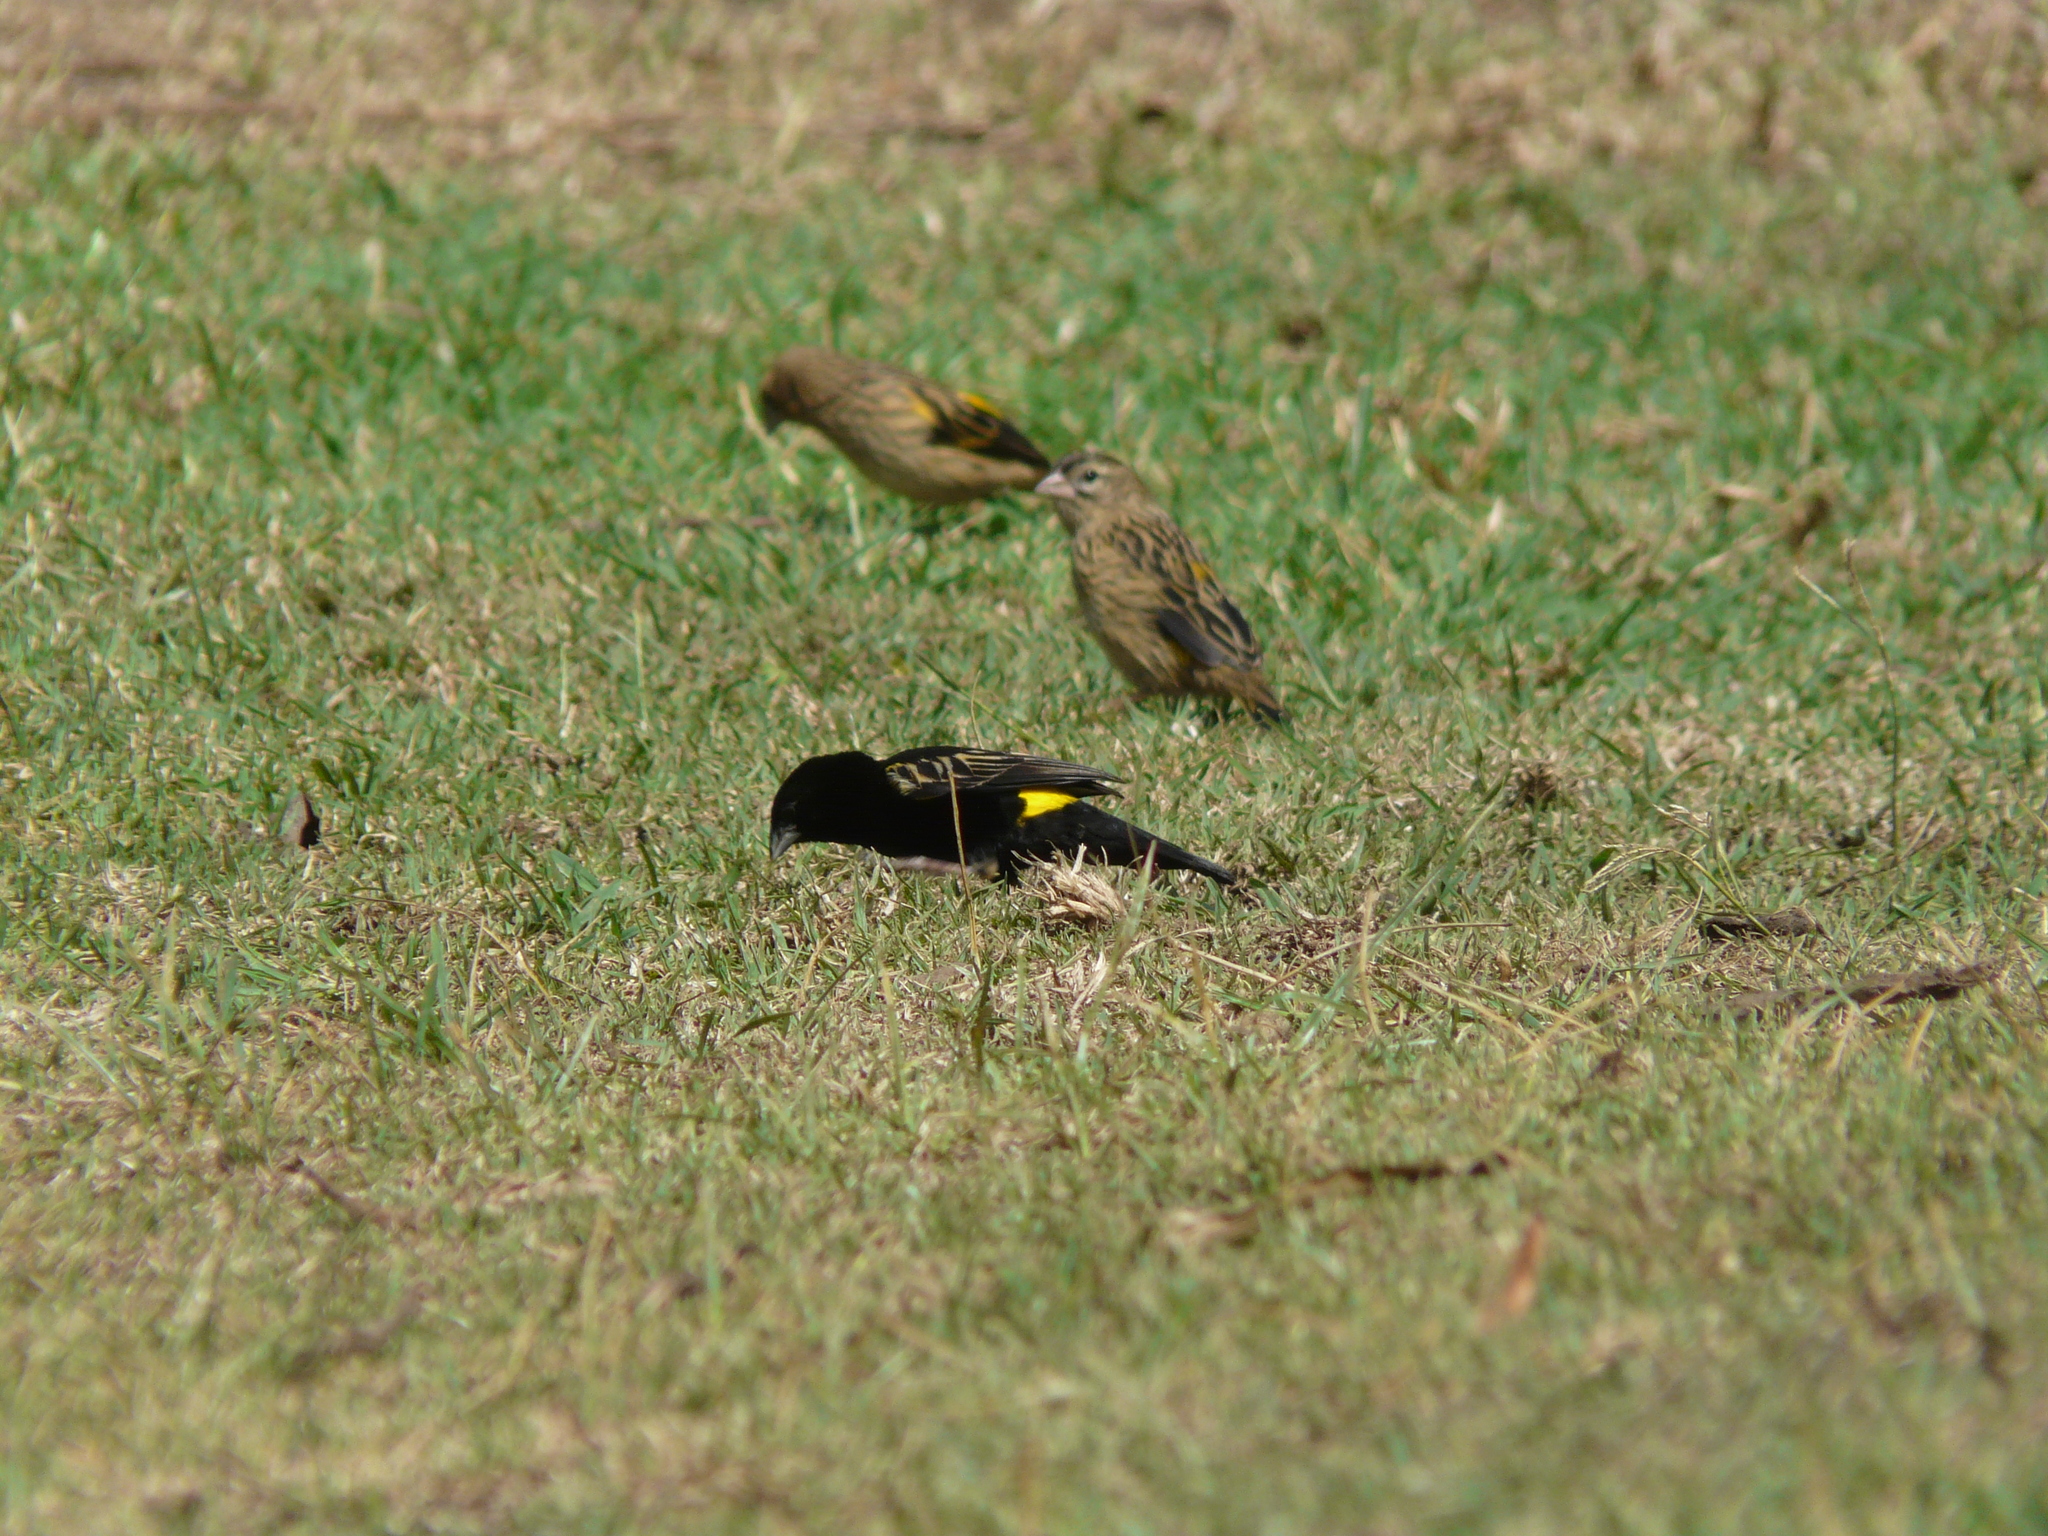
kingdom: Animalia
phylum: Chordata
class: Aves
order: Passeriformes
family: Ploceidae
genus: Euplectes
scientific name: Euplectes capensis
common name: Yellow bishop
